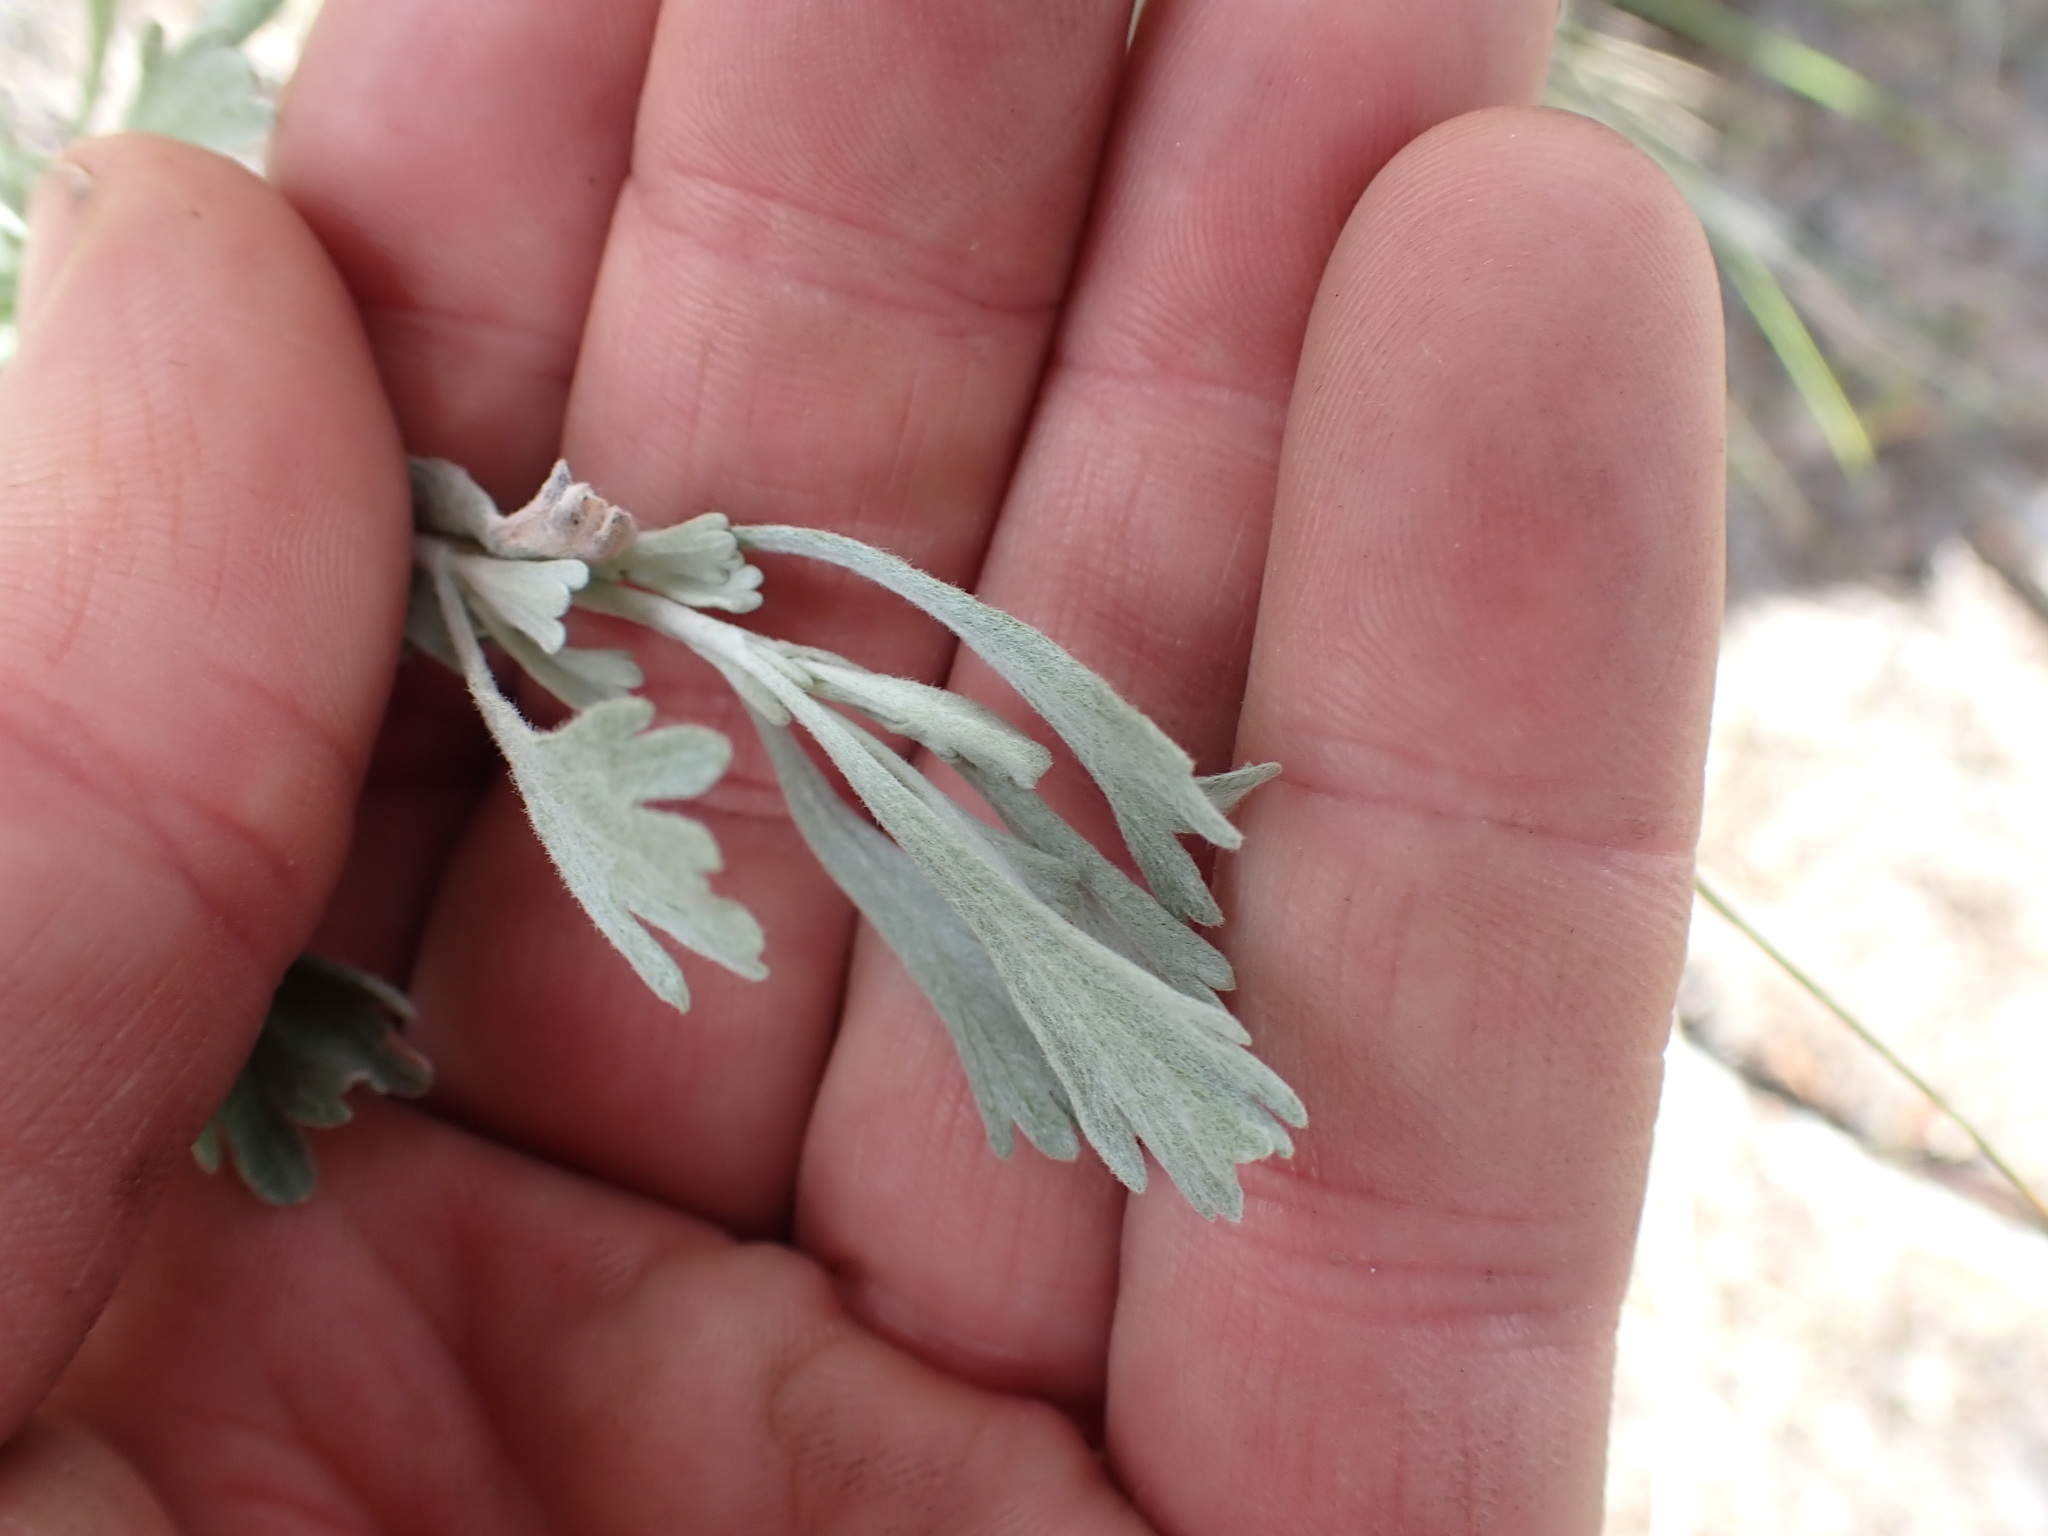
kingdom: Plantae
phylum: Tracheophyta
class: Magnoliopsida
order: Asterales
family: Asteraceae
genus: Artemisia
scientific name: Artemisia tridentata
